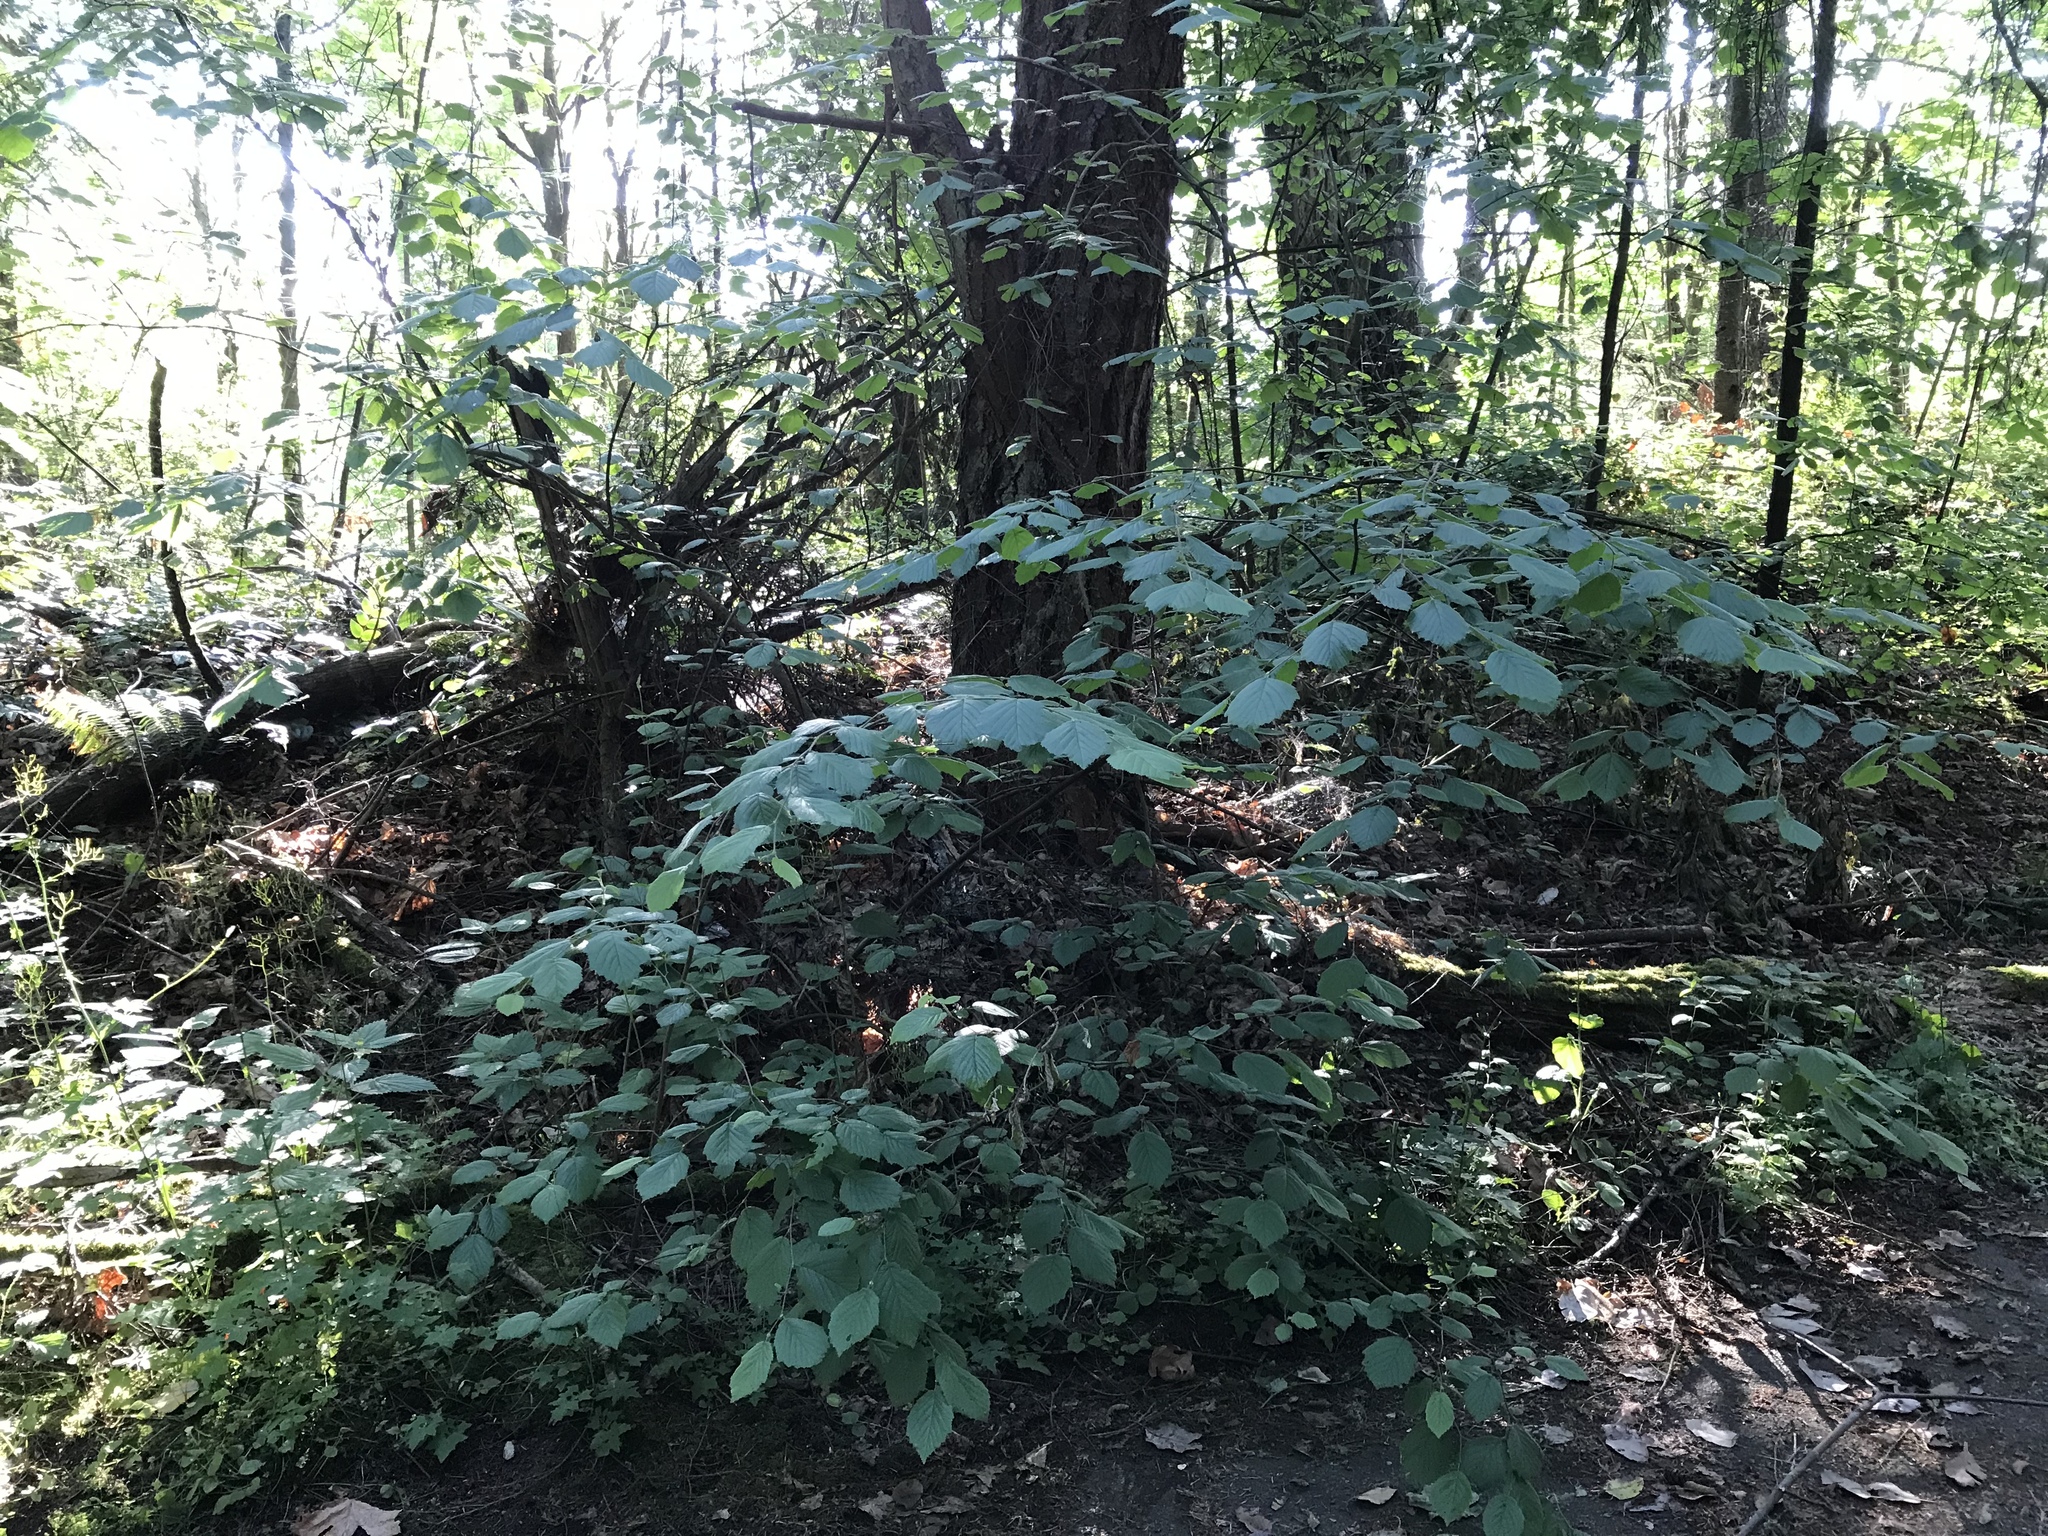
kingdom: Plantae
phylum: Tracheophyta
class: Magnoliopsida
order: Fagales
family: Betulaceae
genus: Corylus
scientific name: Corylus cornuta
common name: Beaked hazel
